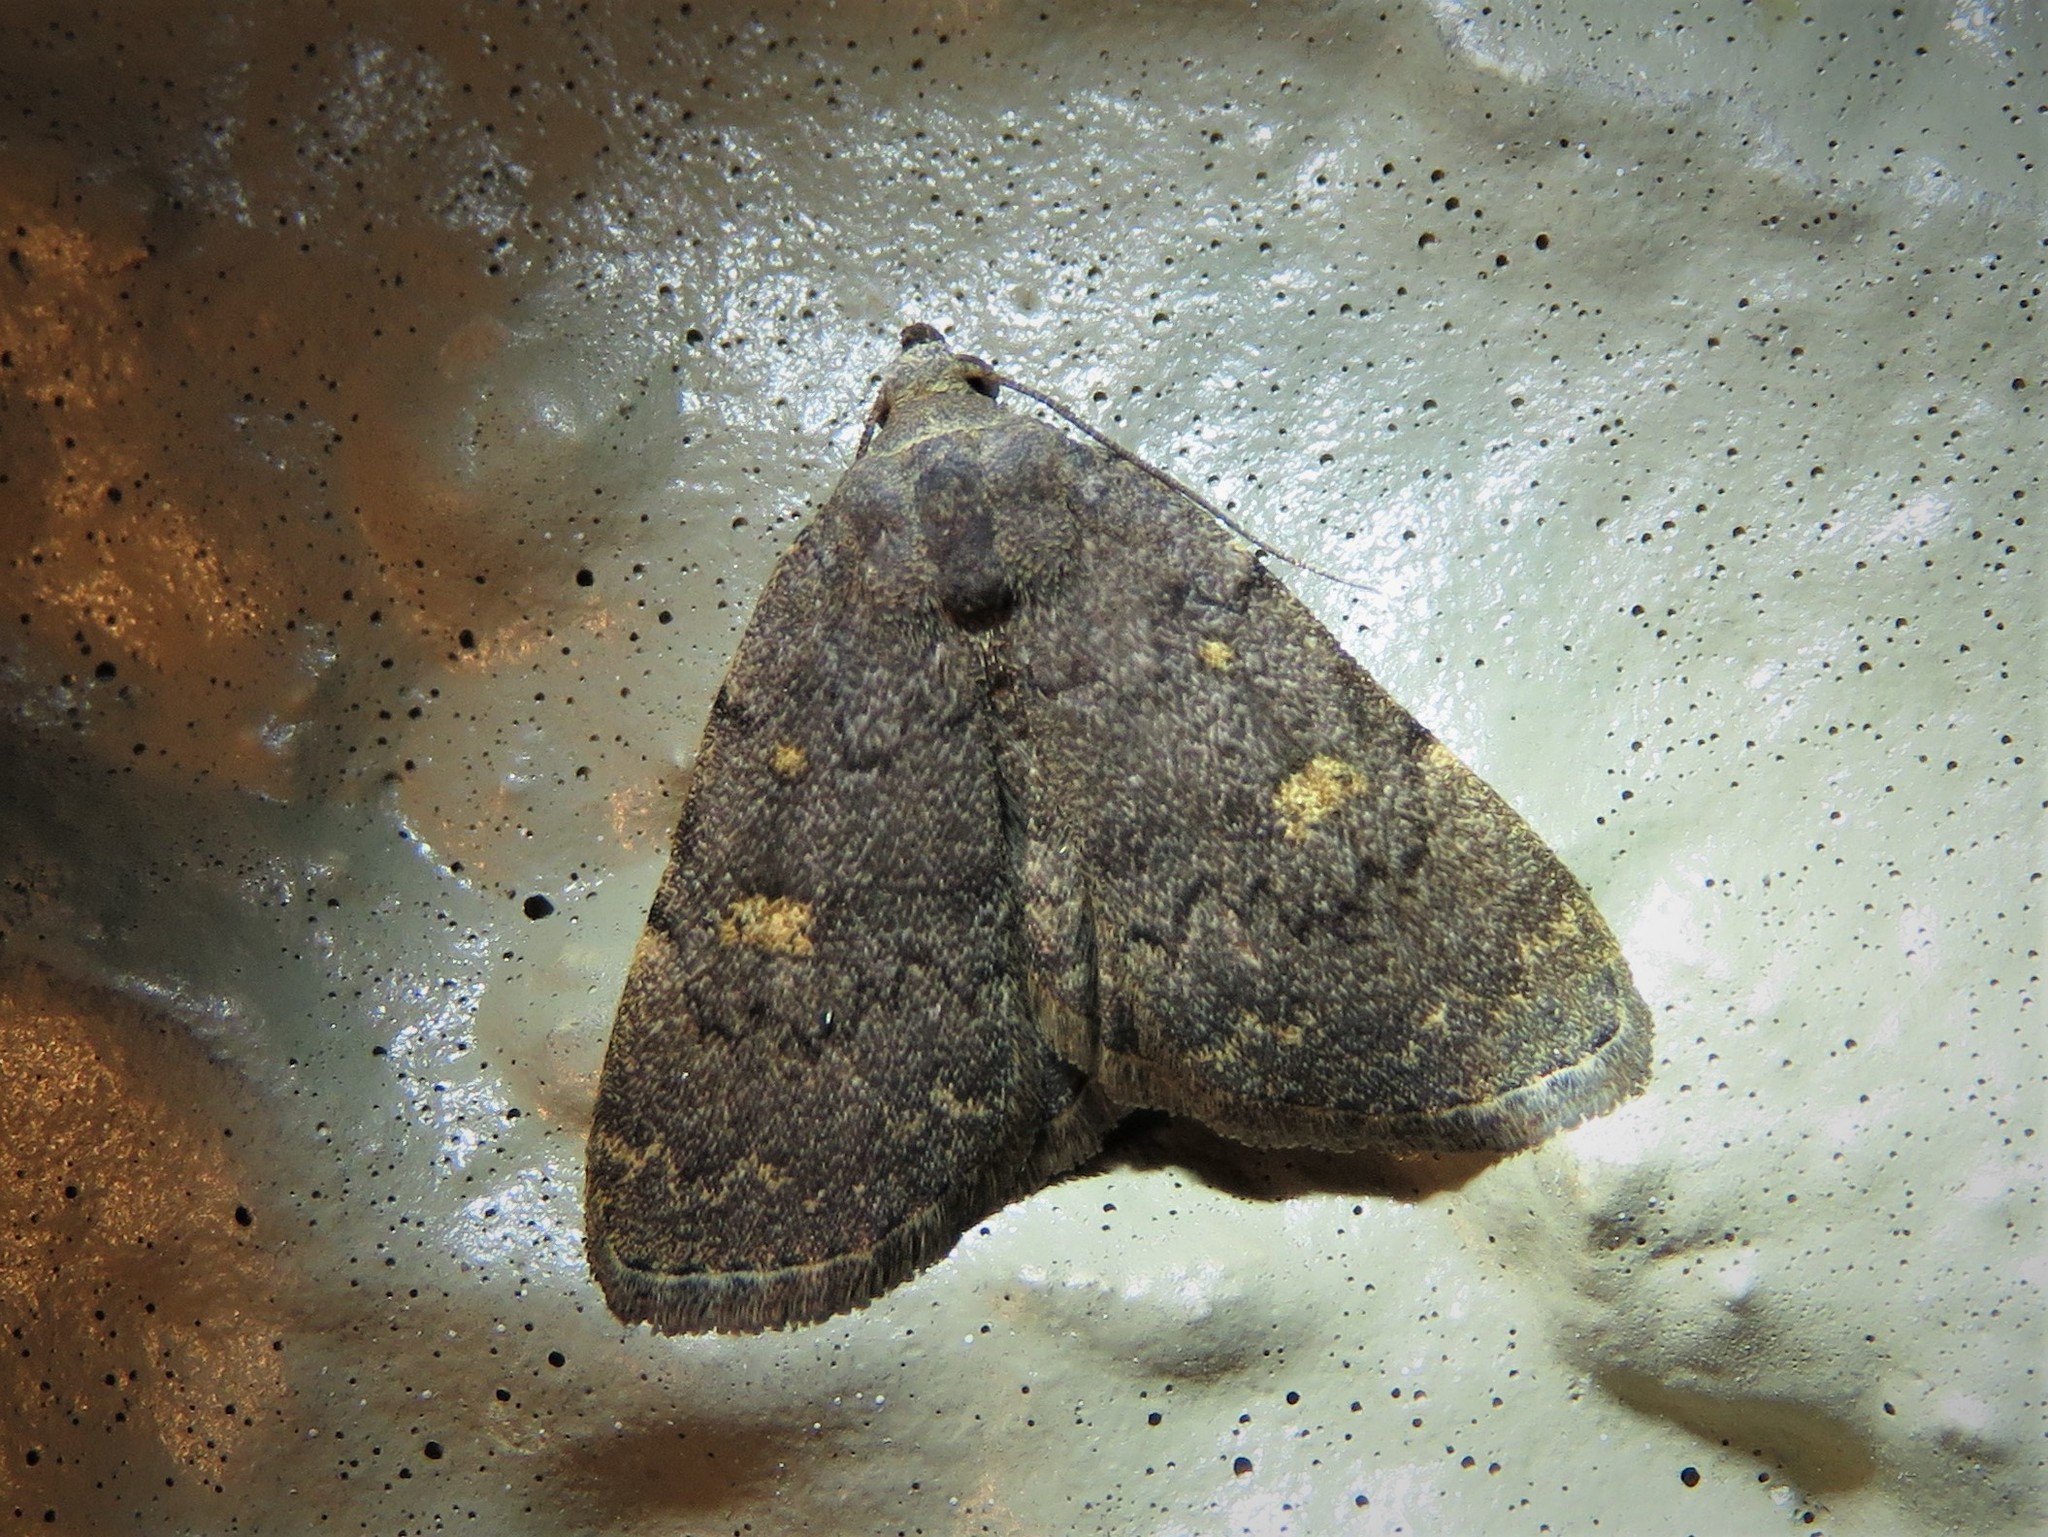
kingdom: Animalia
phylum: Arthropoda
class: Insecta
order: Lepidoptera
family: Erebidae
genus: Idia
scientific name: Idia aemula
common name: Common idia moth
